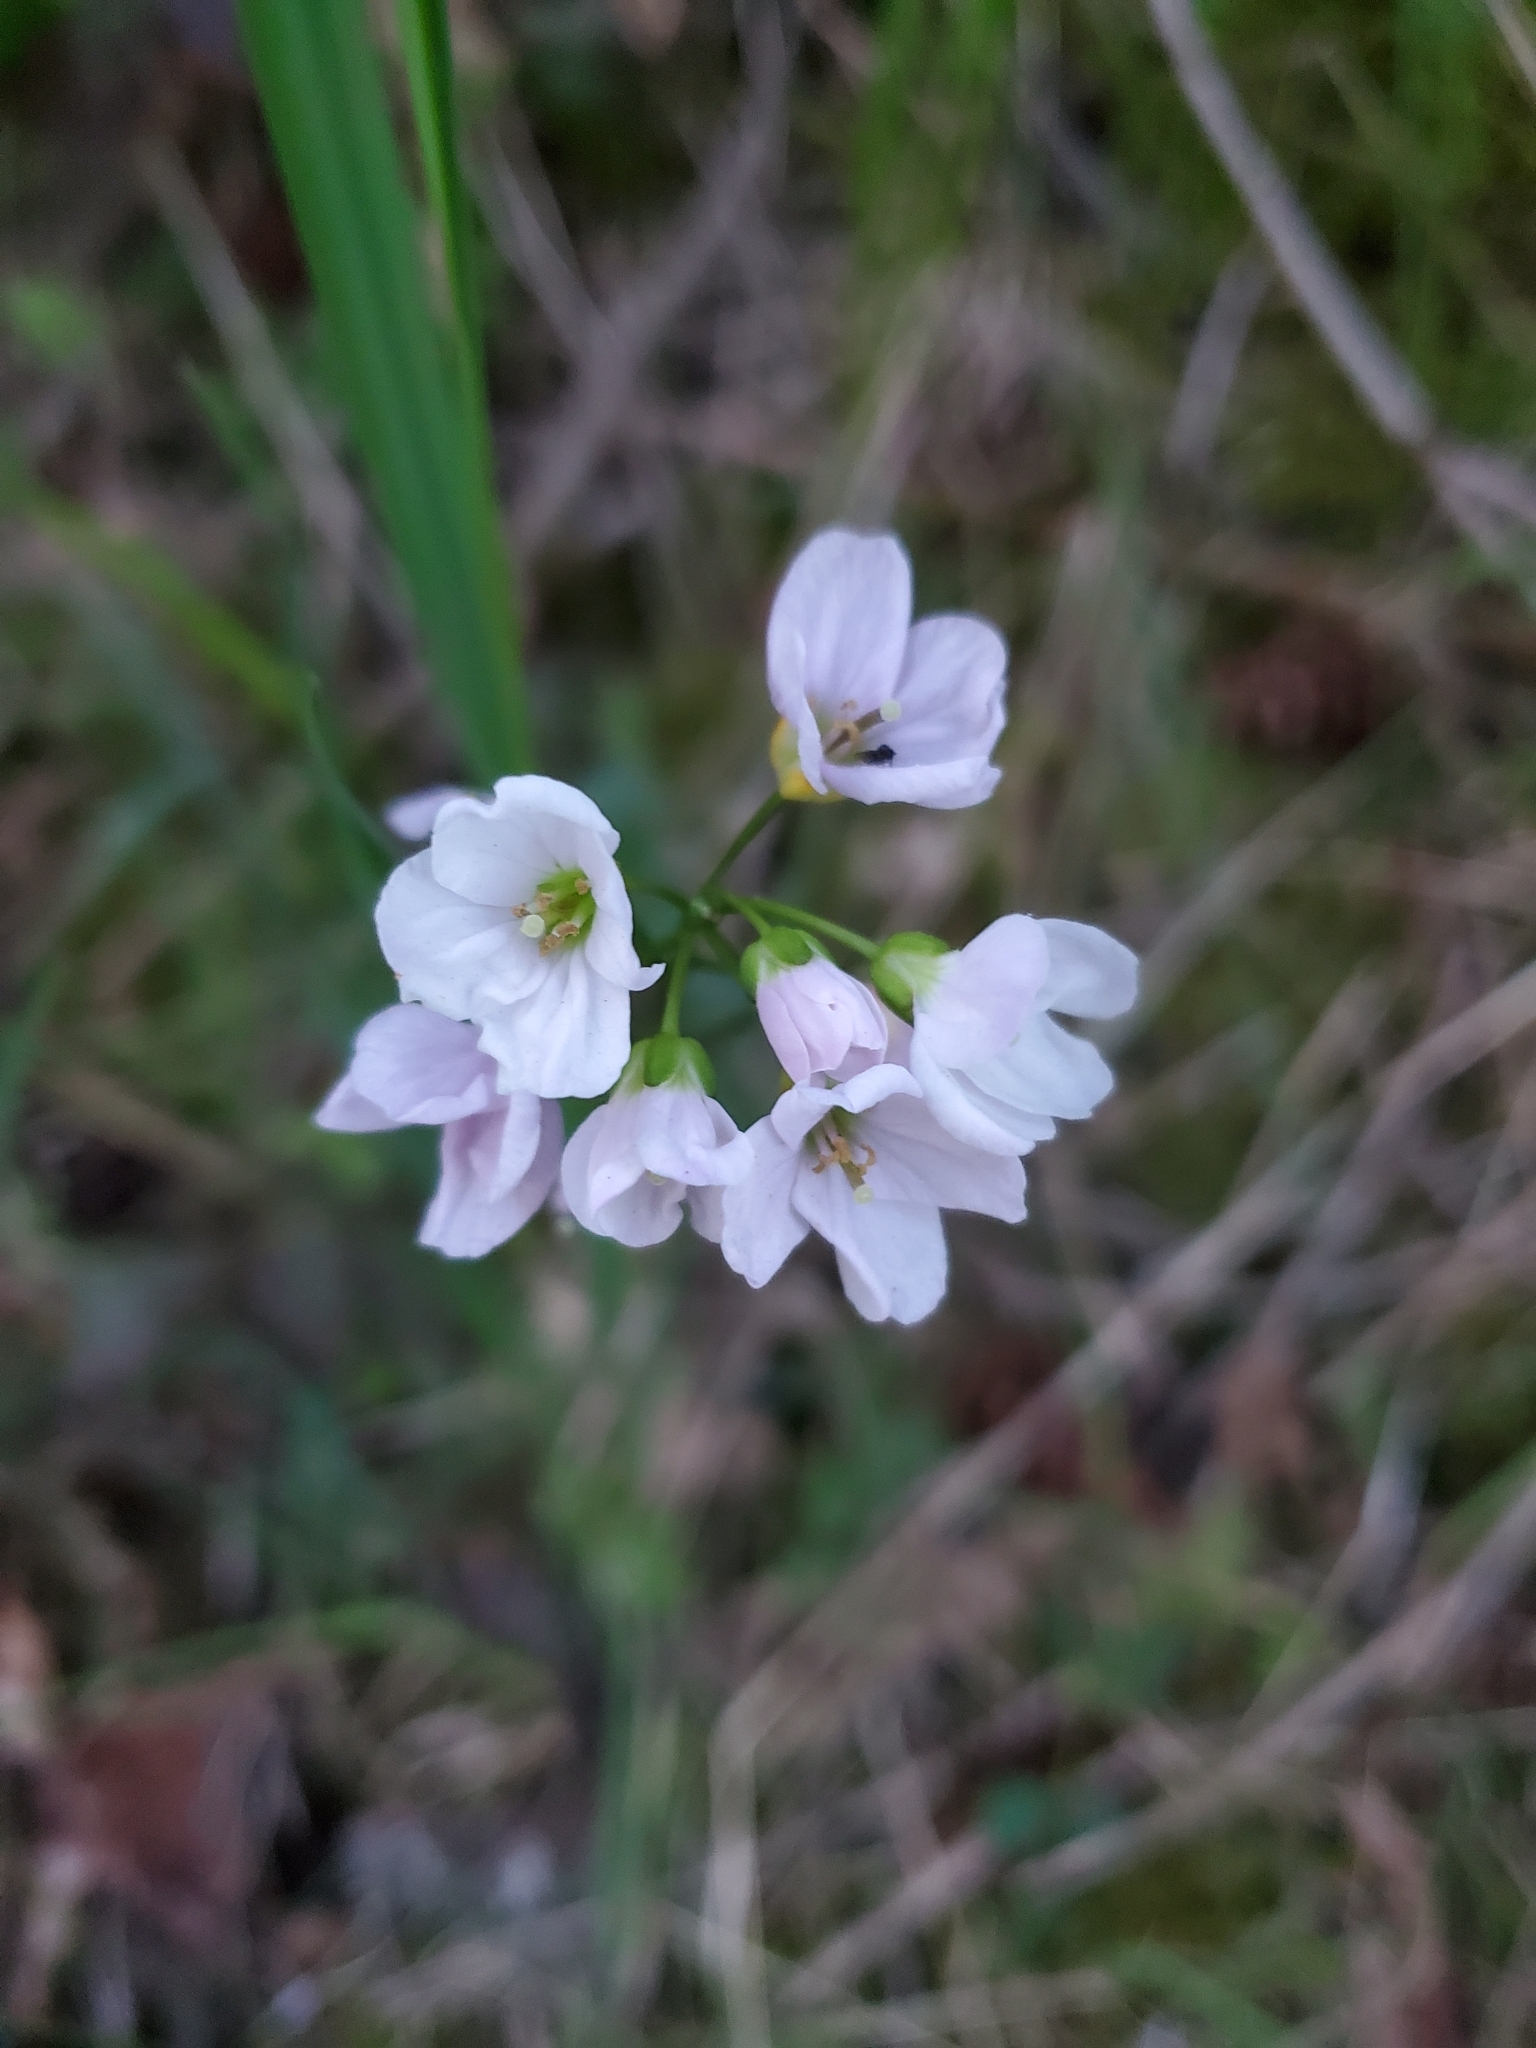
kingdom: Plantae
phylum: Tracheophyta
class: Magnoliopsida
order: Brassicales
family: Brassicaceae
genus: Cardamine
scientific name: Cardamine nuttallii
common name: Nuttall's toothwort
